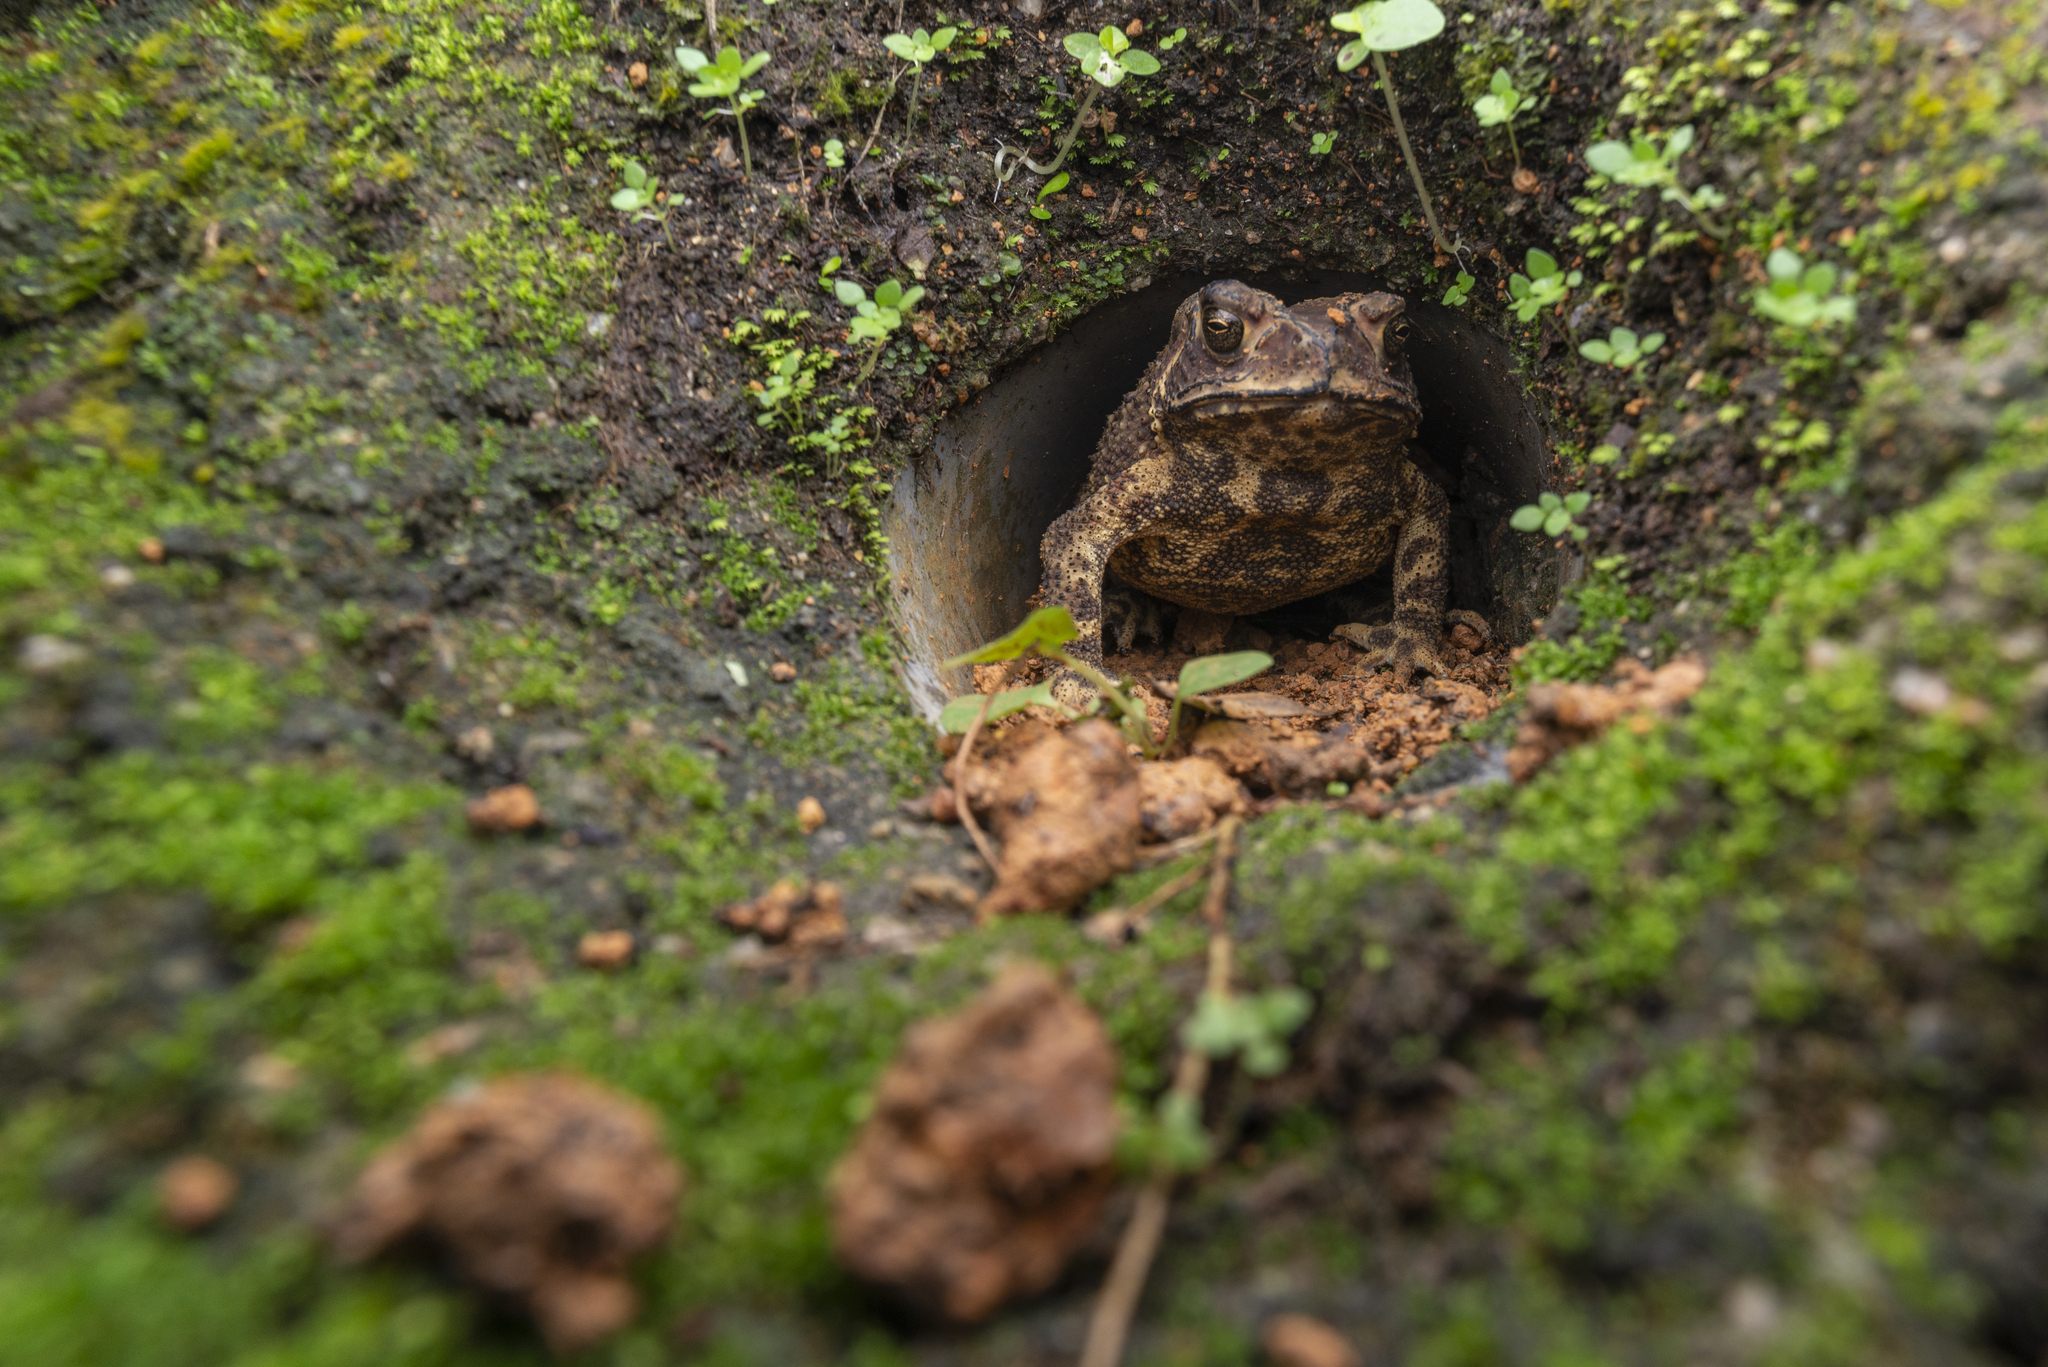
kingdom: Animalia
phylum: Chordata
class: Amphibia
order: Anura
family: Bufonidae
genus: Duttaphrynus
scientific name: Duttaphrynus melanostictus
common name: Common sunda toad
